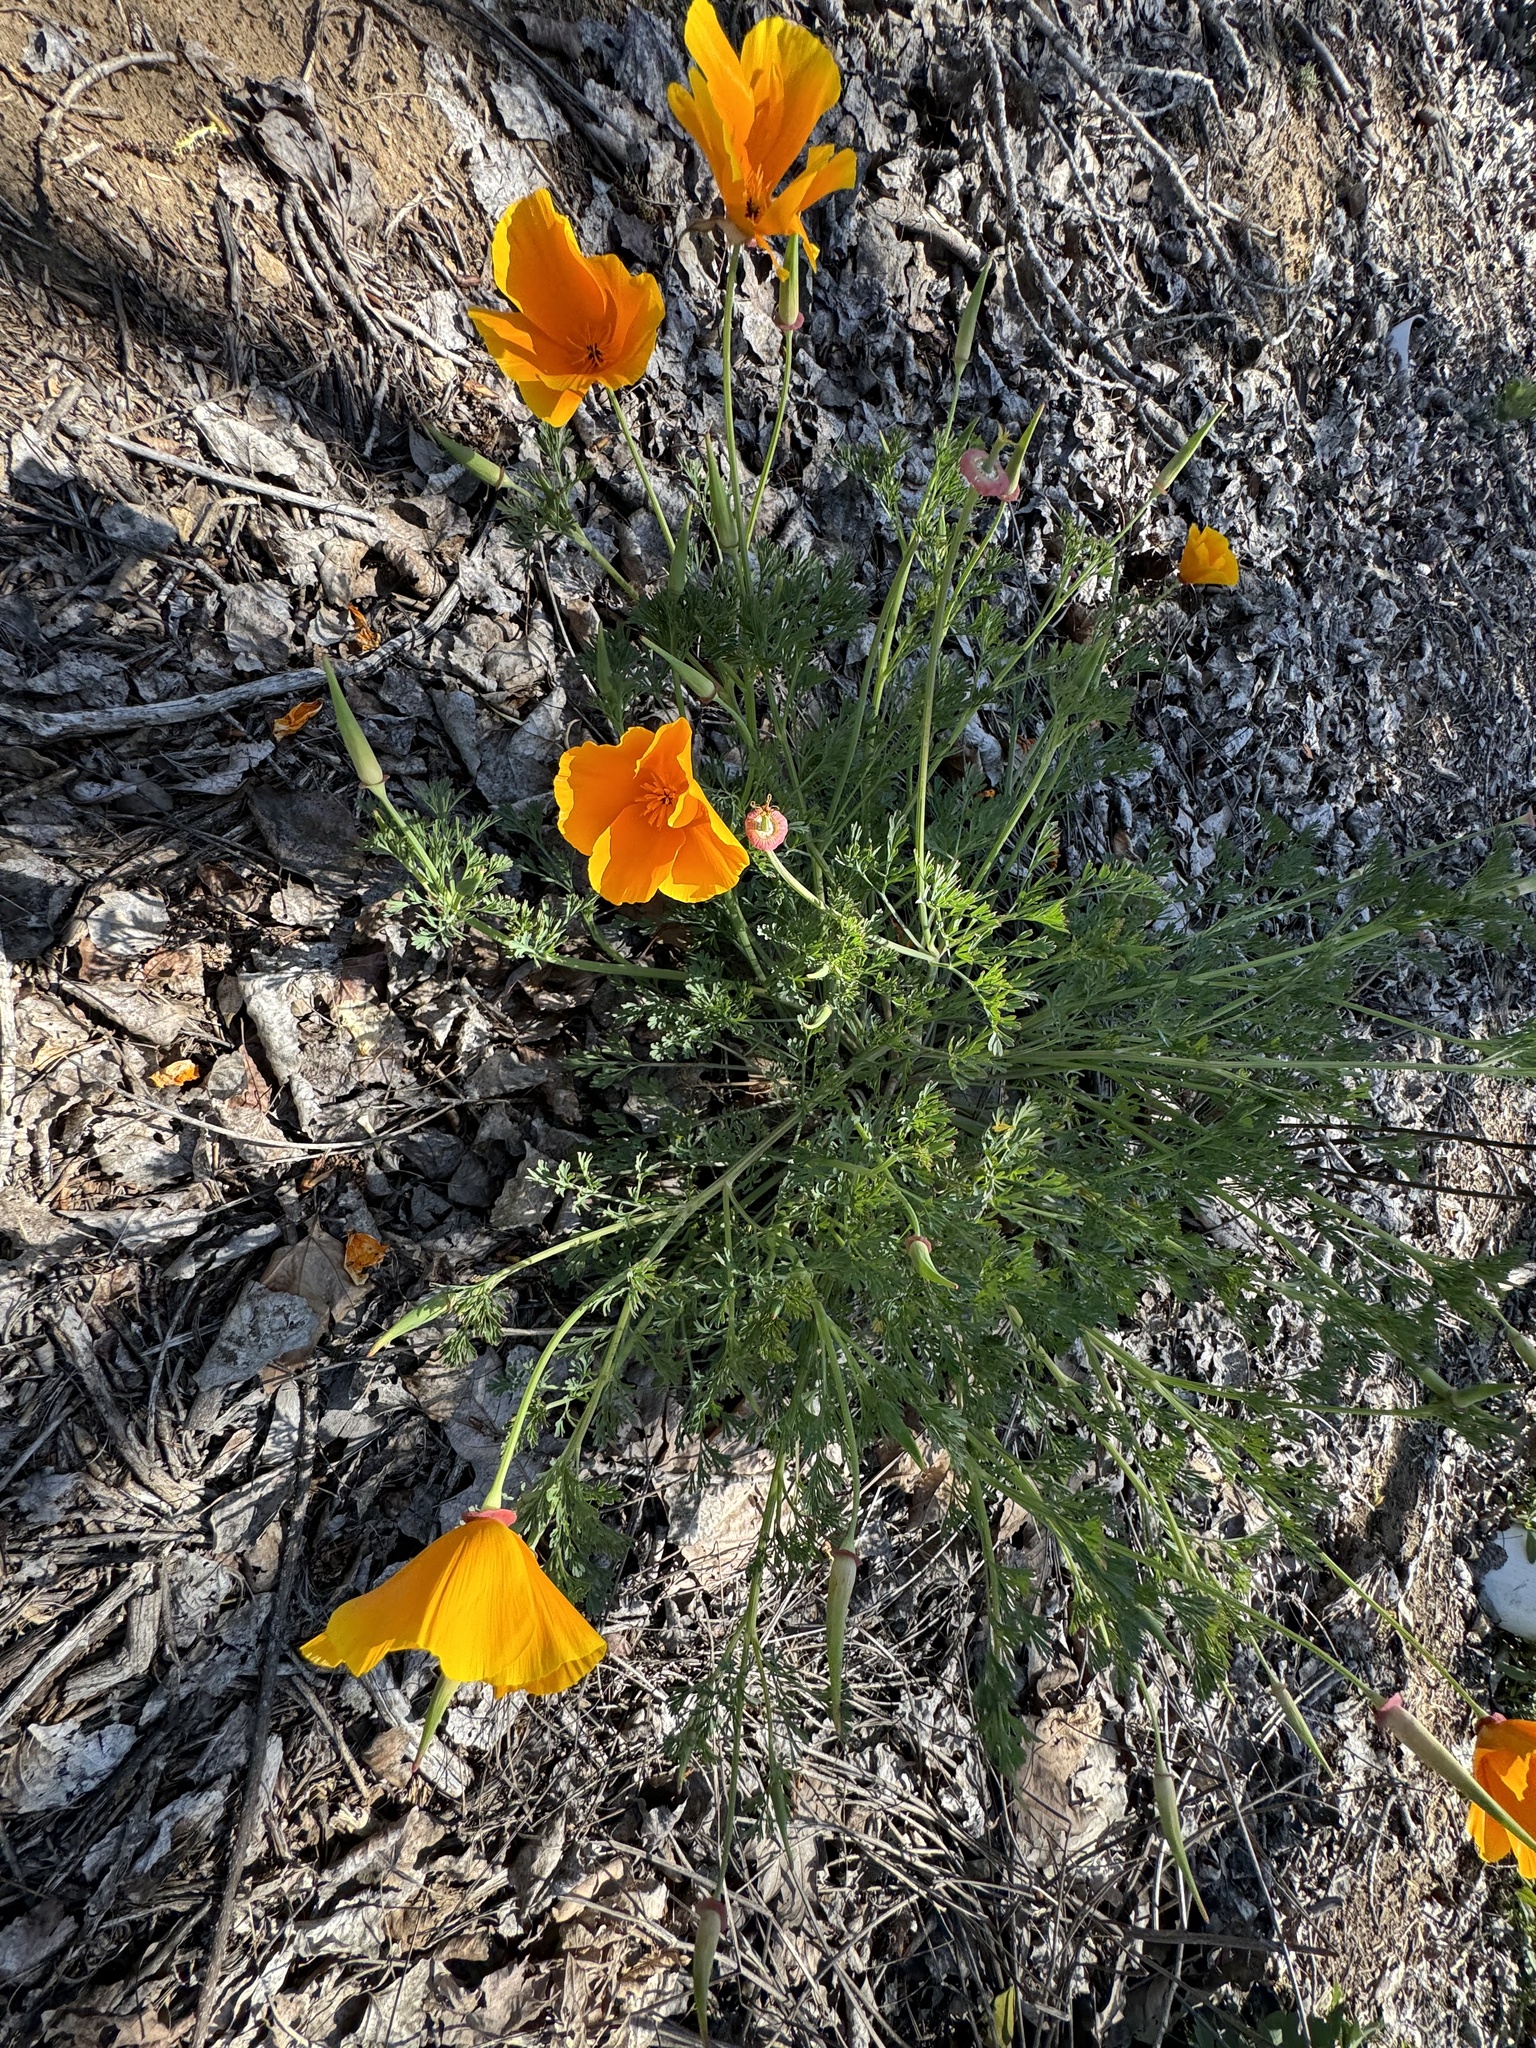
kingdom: Plantae
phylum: Tracheophyta
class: Magnoliopsida
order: Ranunculales
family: Papaveraceae
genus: Eschscholzia
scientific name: Eschscholzia californica
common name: California poppy
